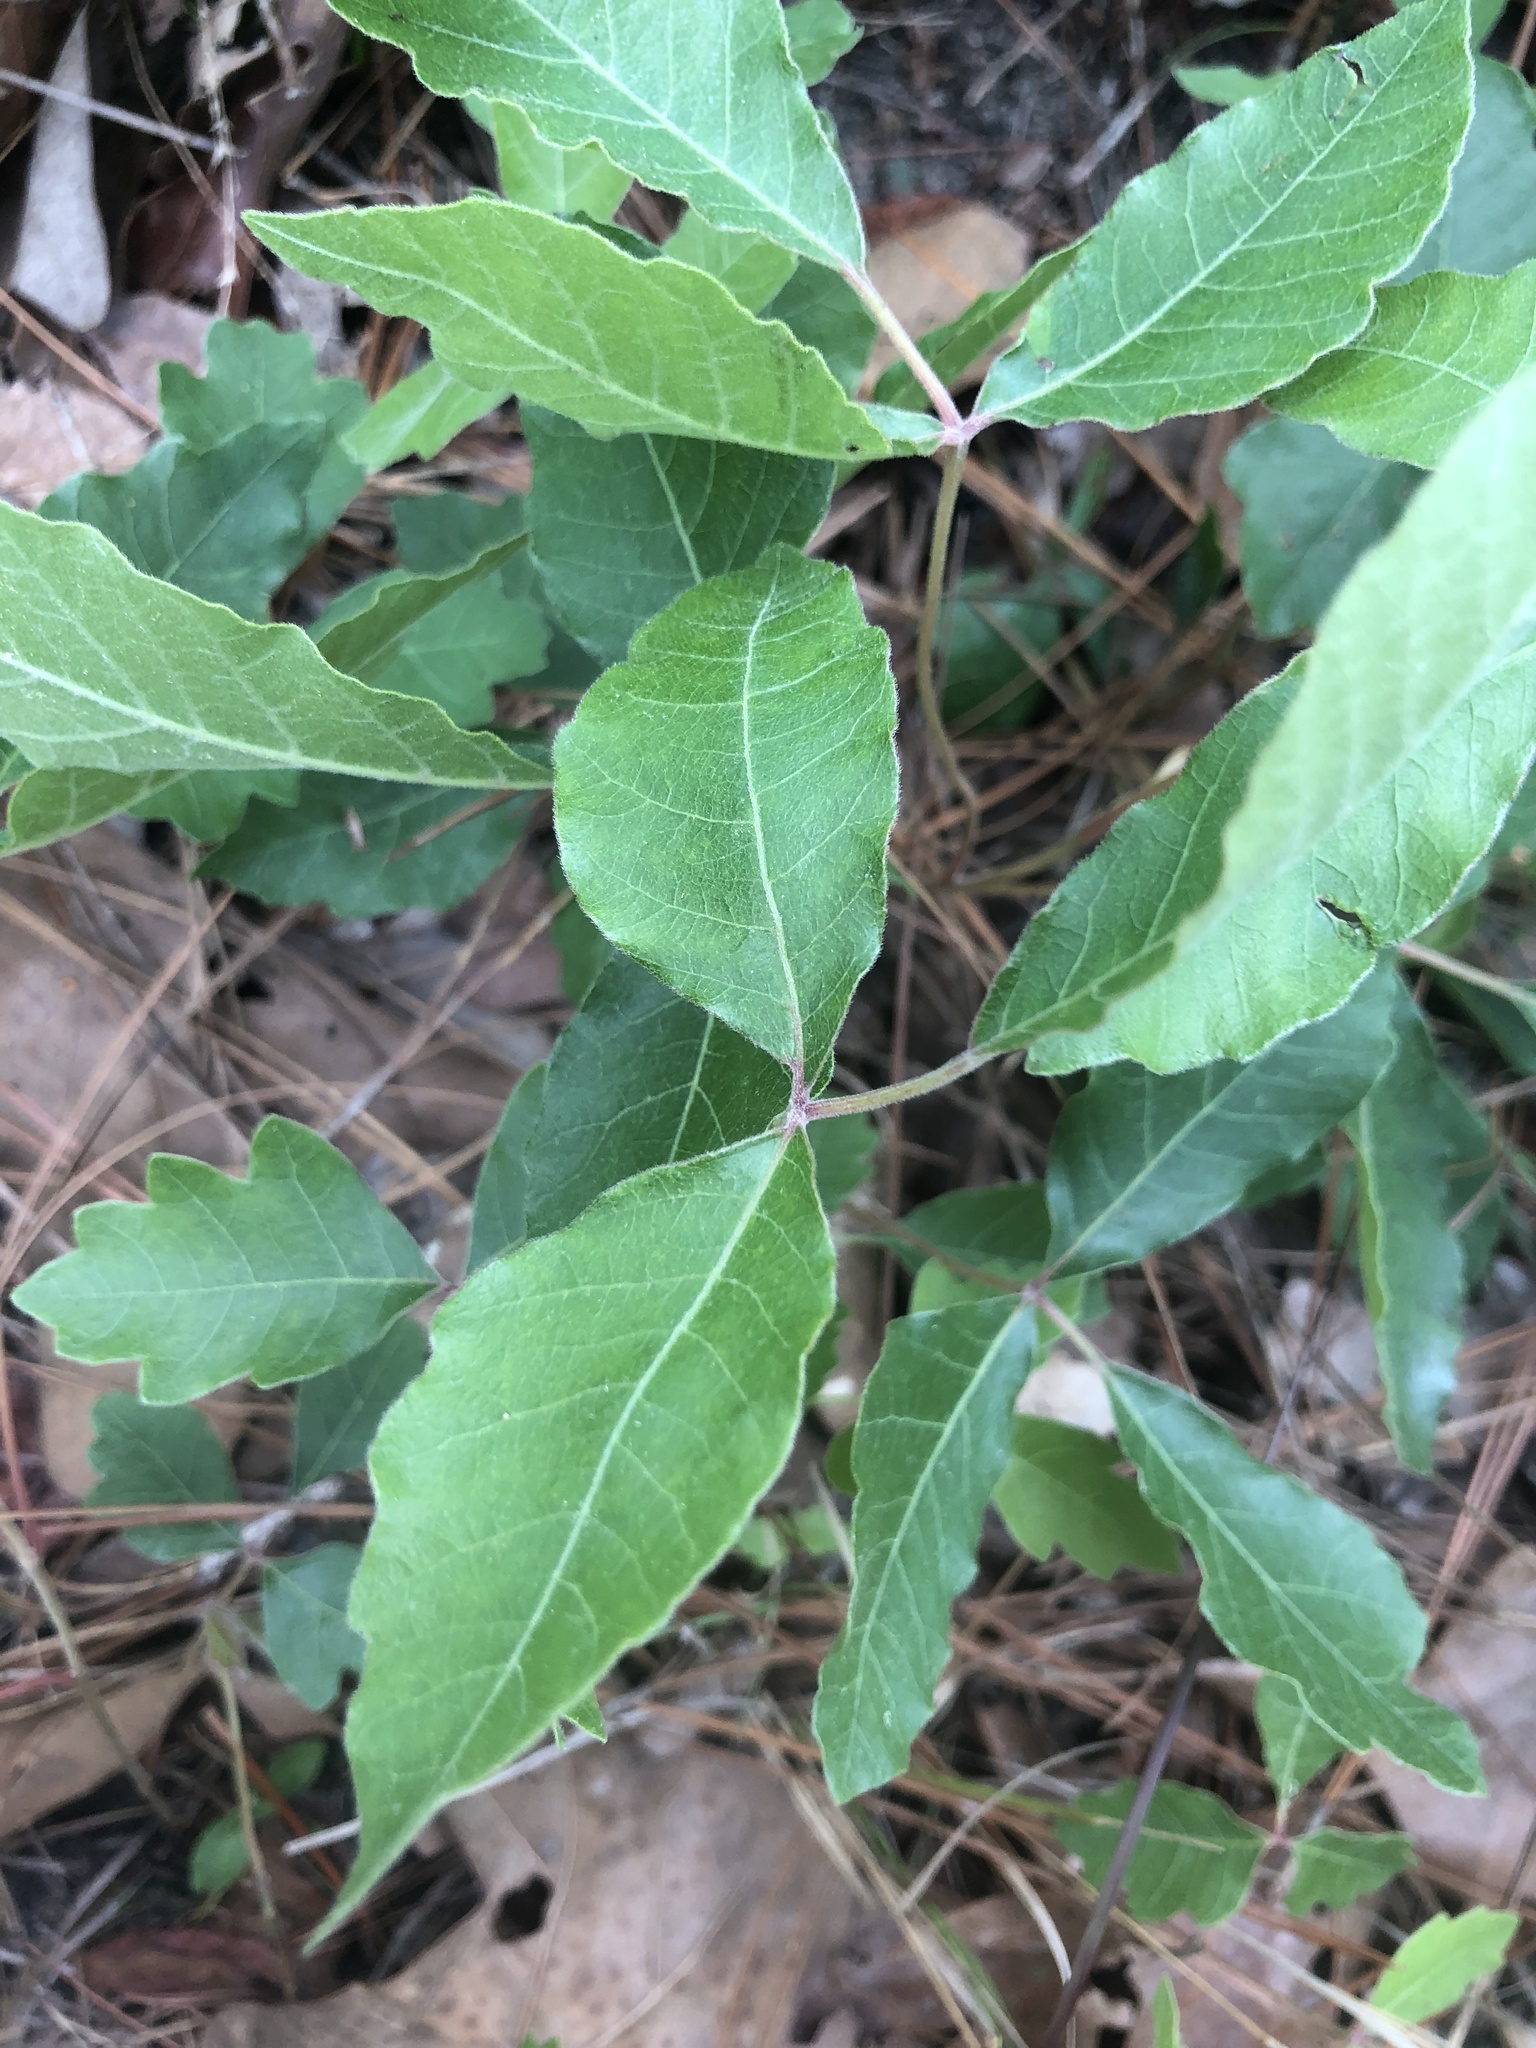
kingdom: Plantae
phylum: Tracheophyta
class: Magnoliopsida
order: Sapindales
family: Anacardiaceae
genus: Toxicodendron
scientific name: Toxicodendron pubescens
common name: Eastern poison-oak
